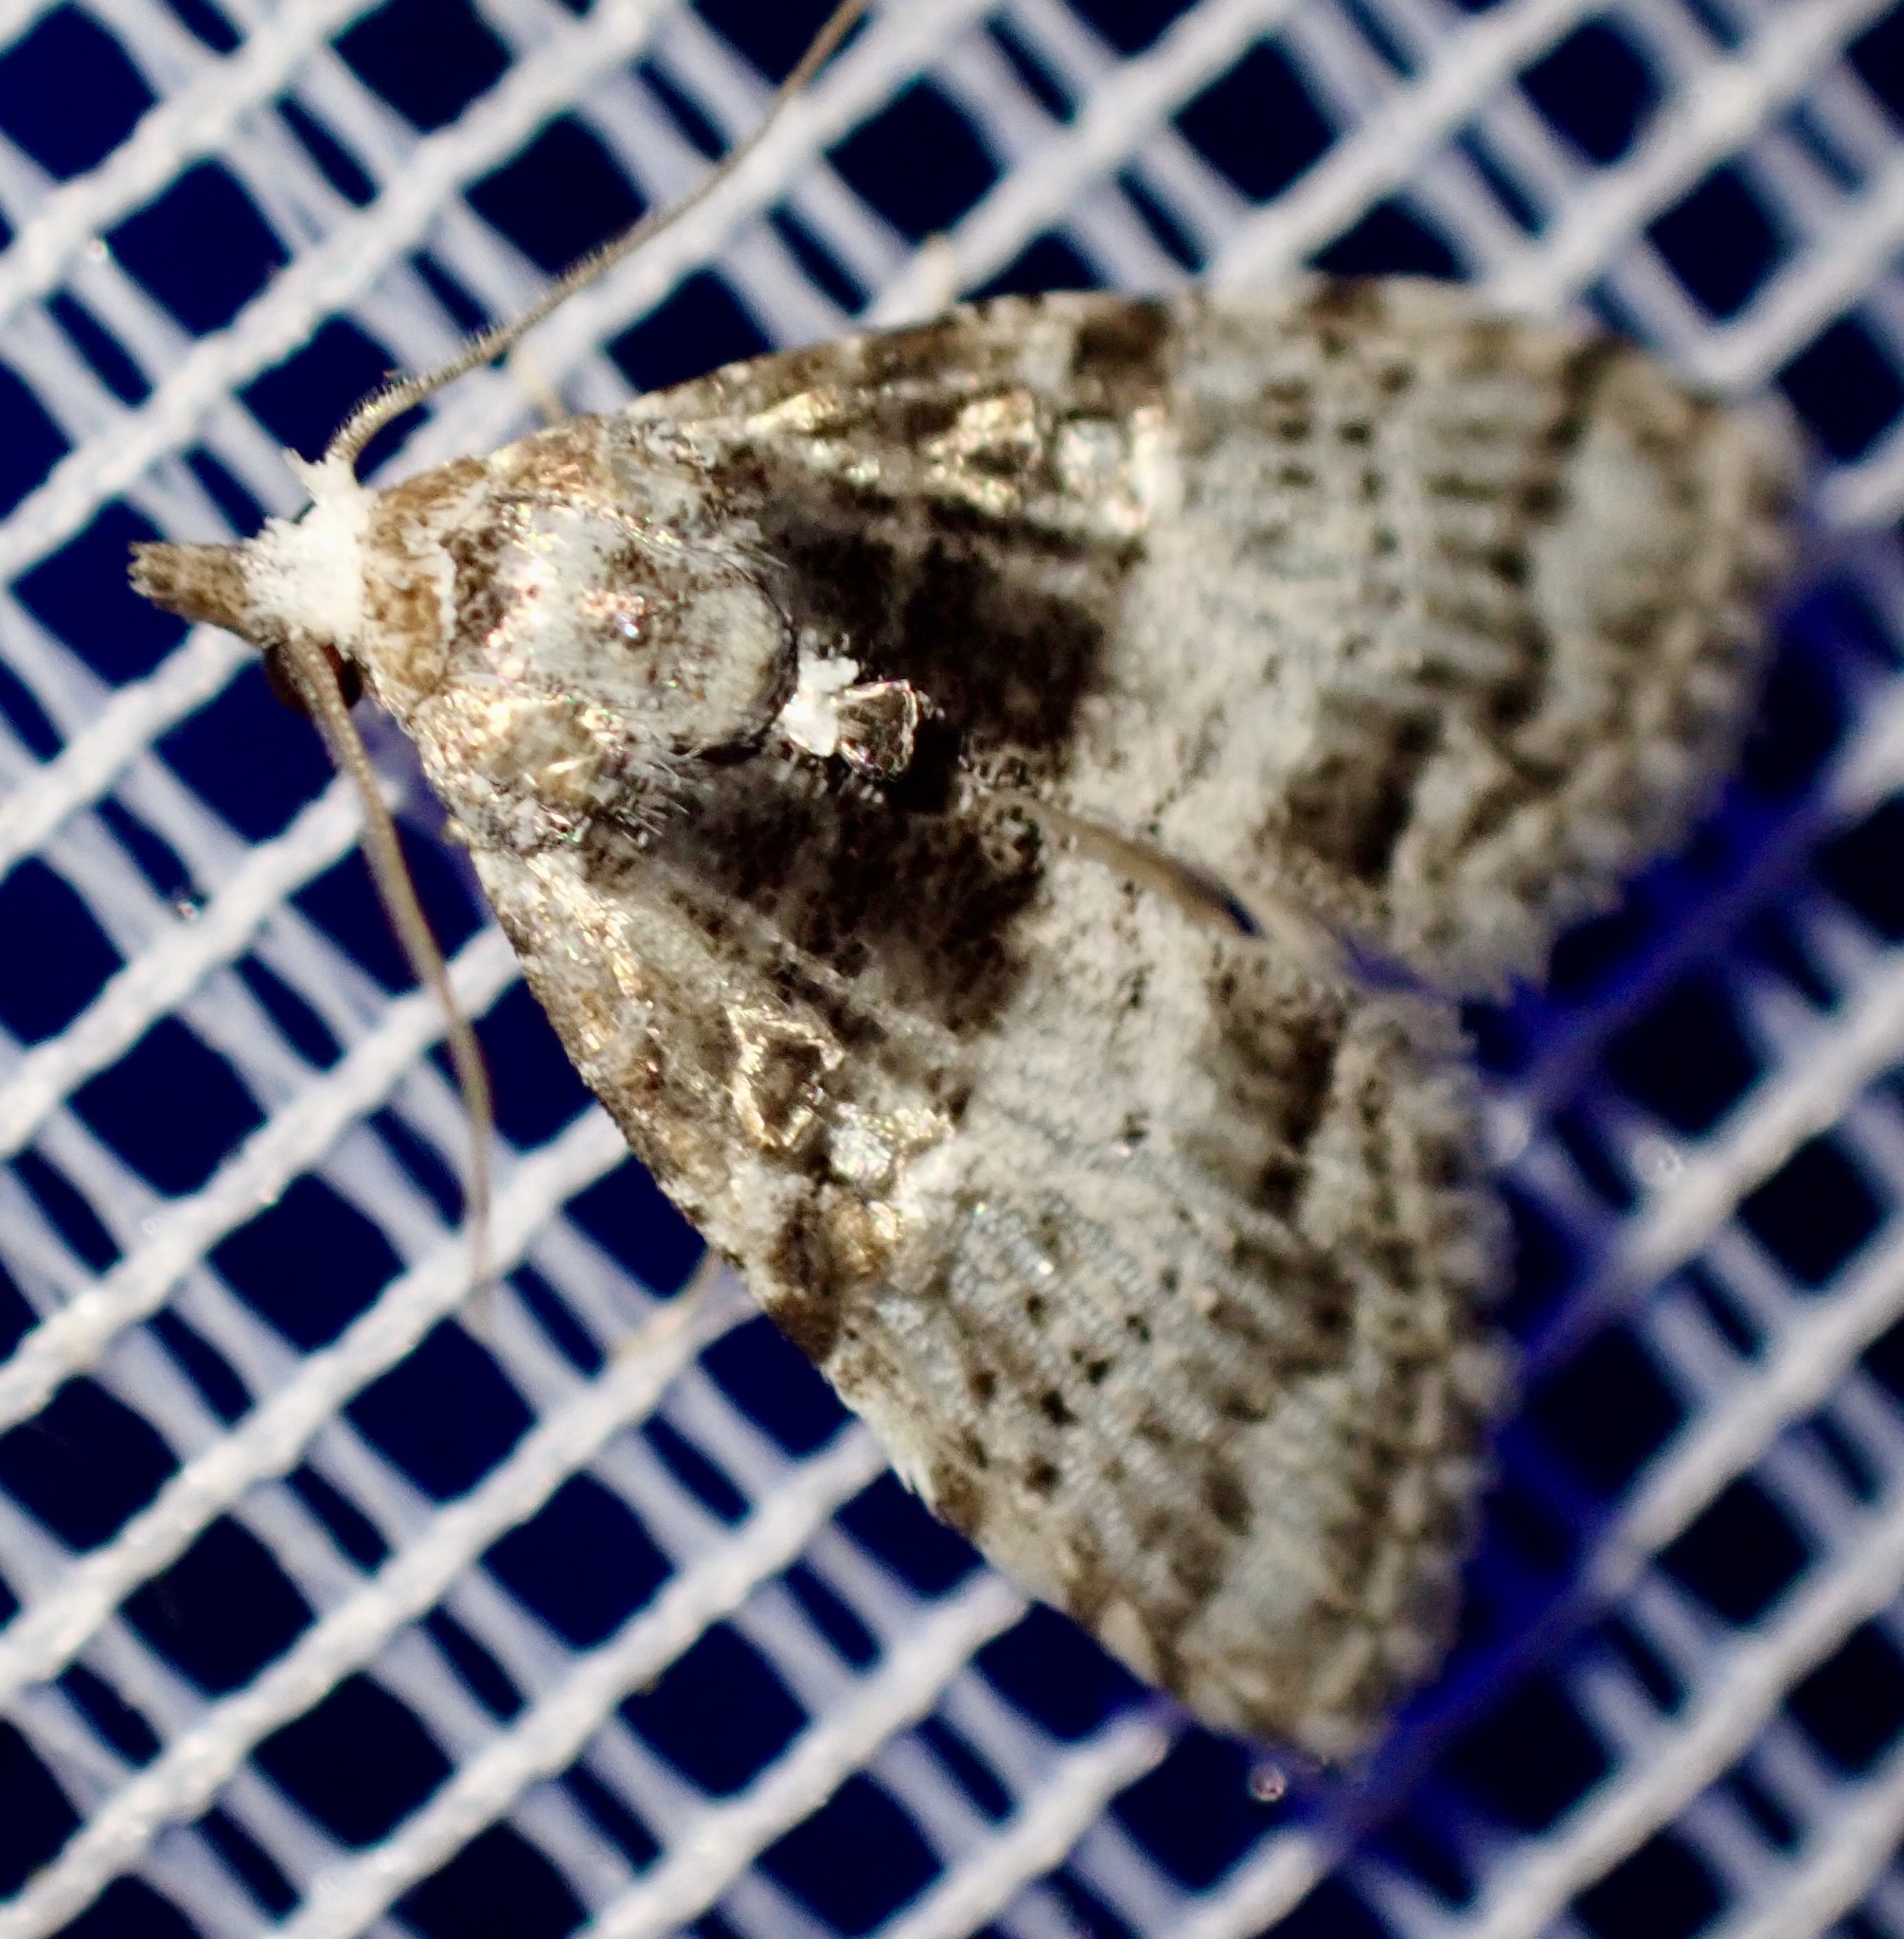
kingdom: Animalia
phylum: Arthropoda
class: Insecta
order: Lepidoptera
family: Nolidae
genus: Nola
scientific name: Nola fuscibasis
